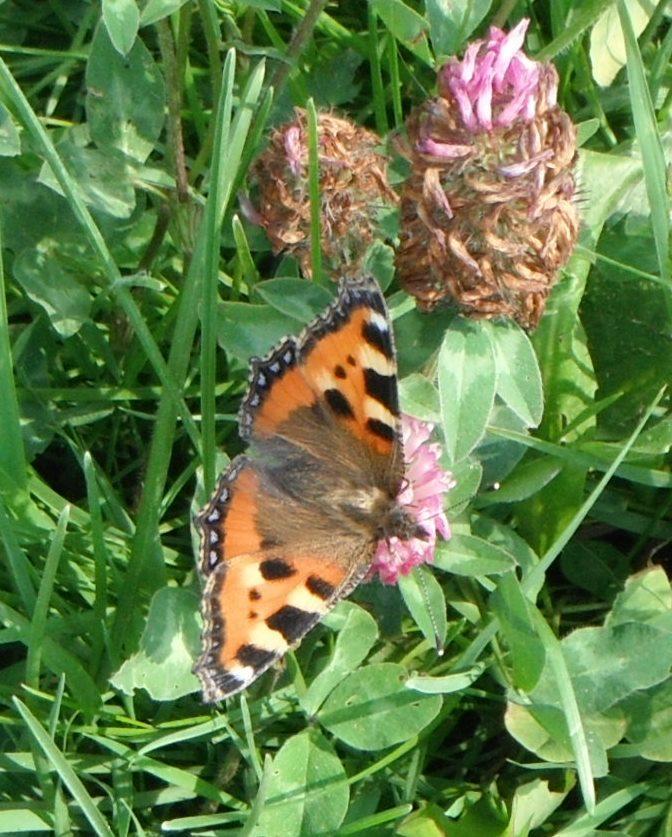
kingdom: Plantae
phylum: Tracheophyta
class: Magnoliopsida
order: Fabales
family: Fabaceae
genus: Trifolium
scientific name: Trifolium pratense
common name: Red clover
